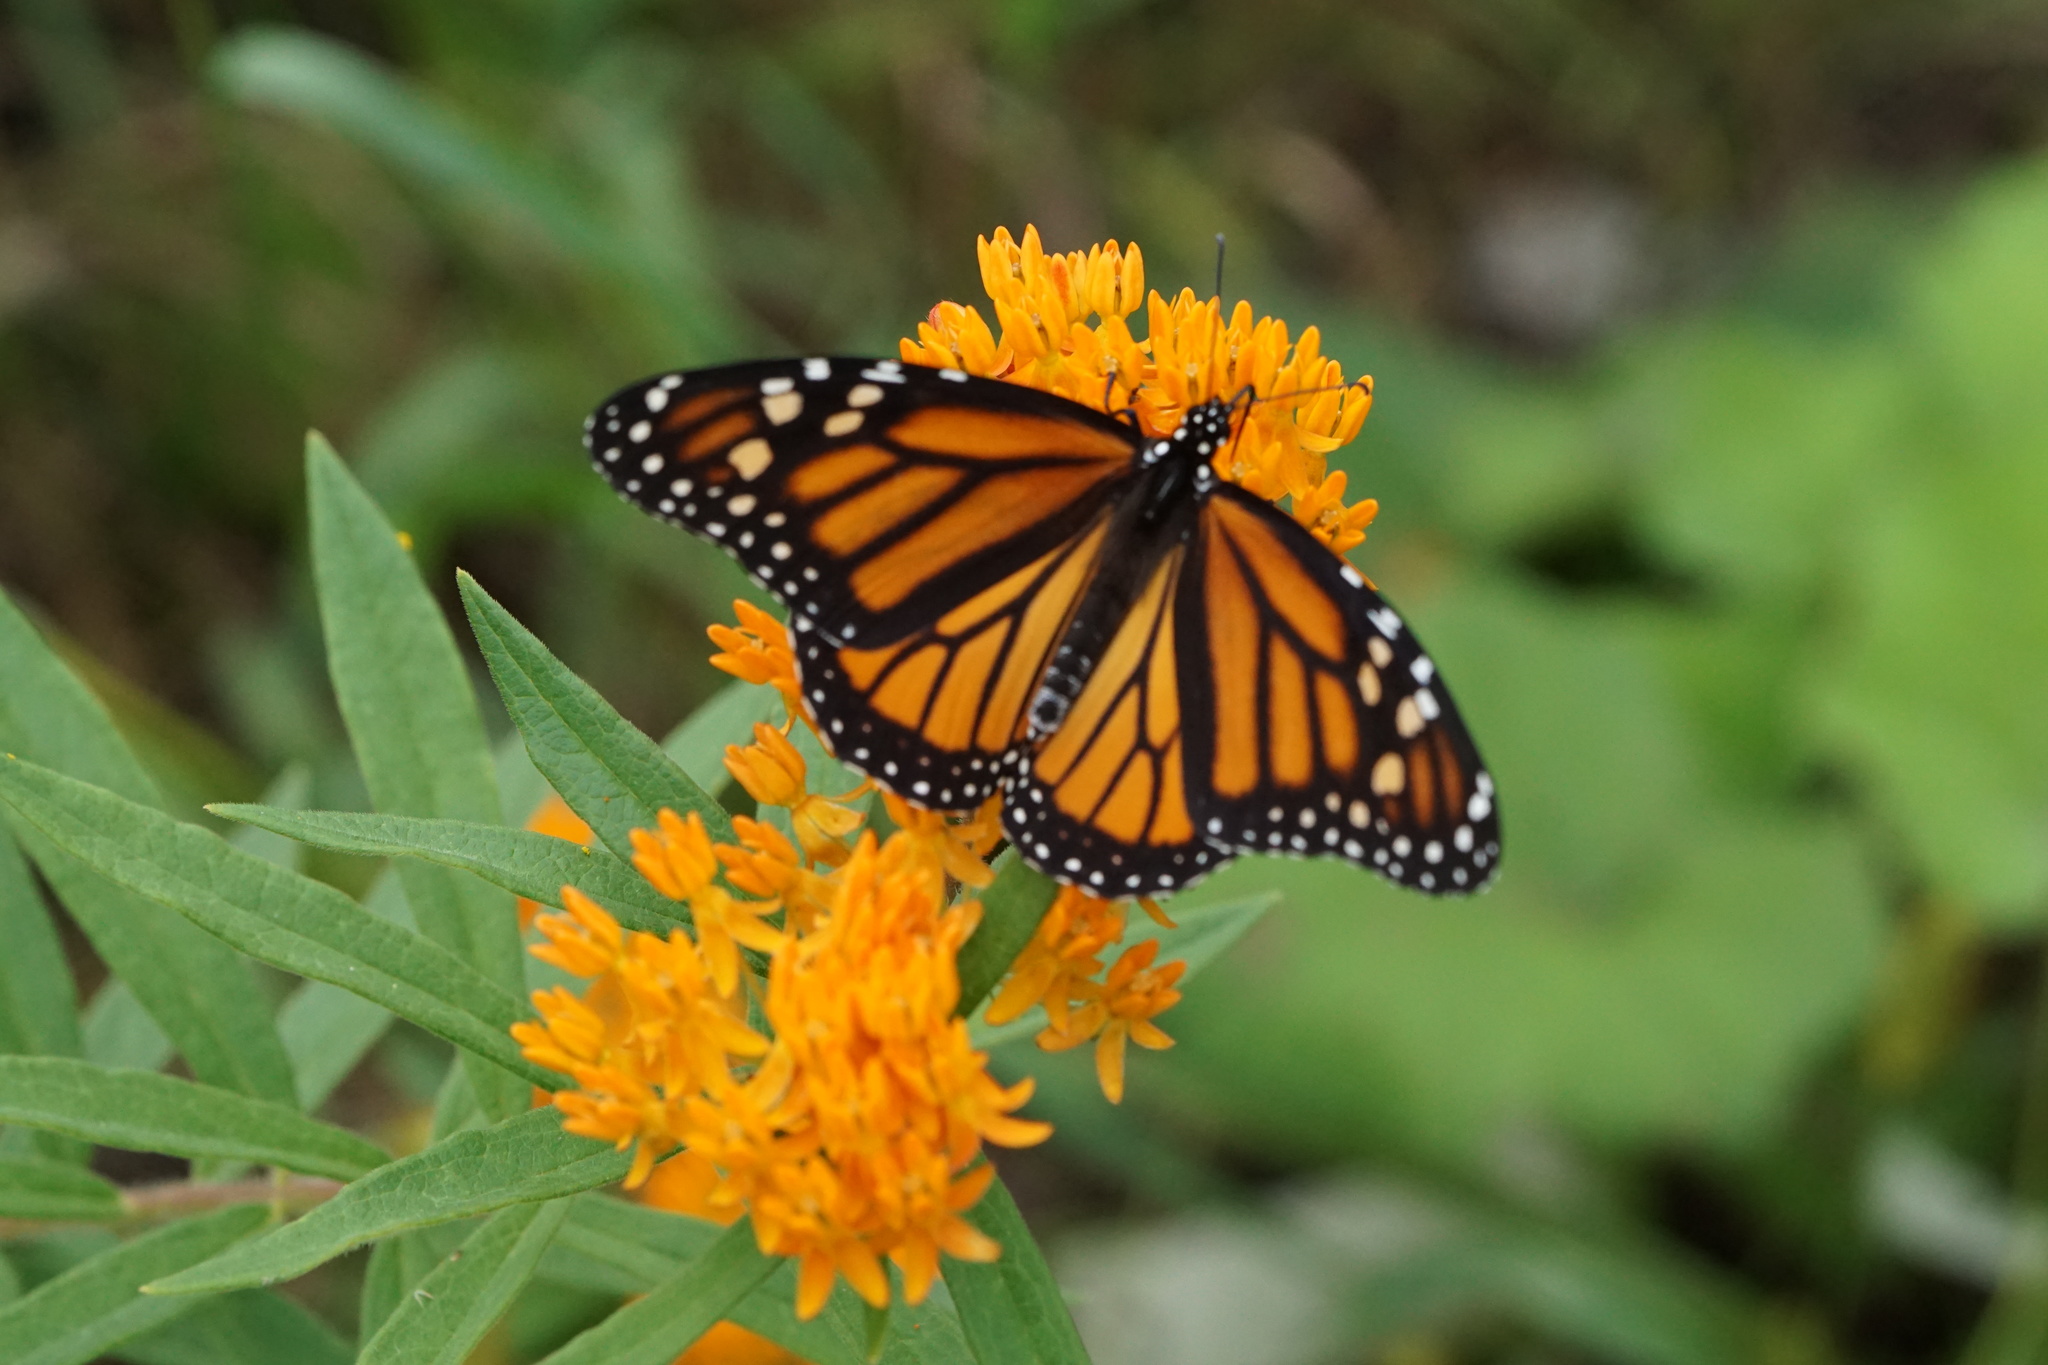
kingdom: Animalia
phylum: Arthropoda
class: Insecta
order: Lepidoptera
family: Nymphalidae
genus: Danaus
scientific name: Danaus plexippus
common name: Monarch
